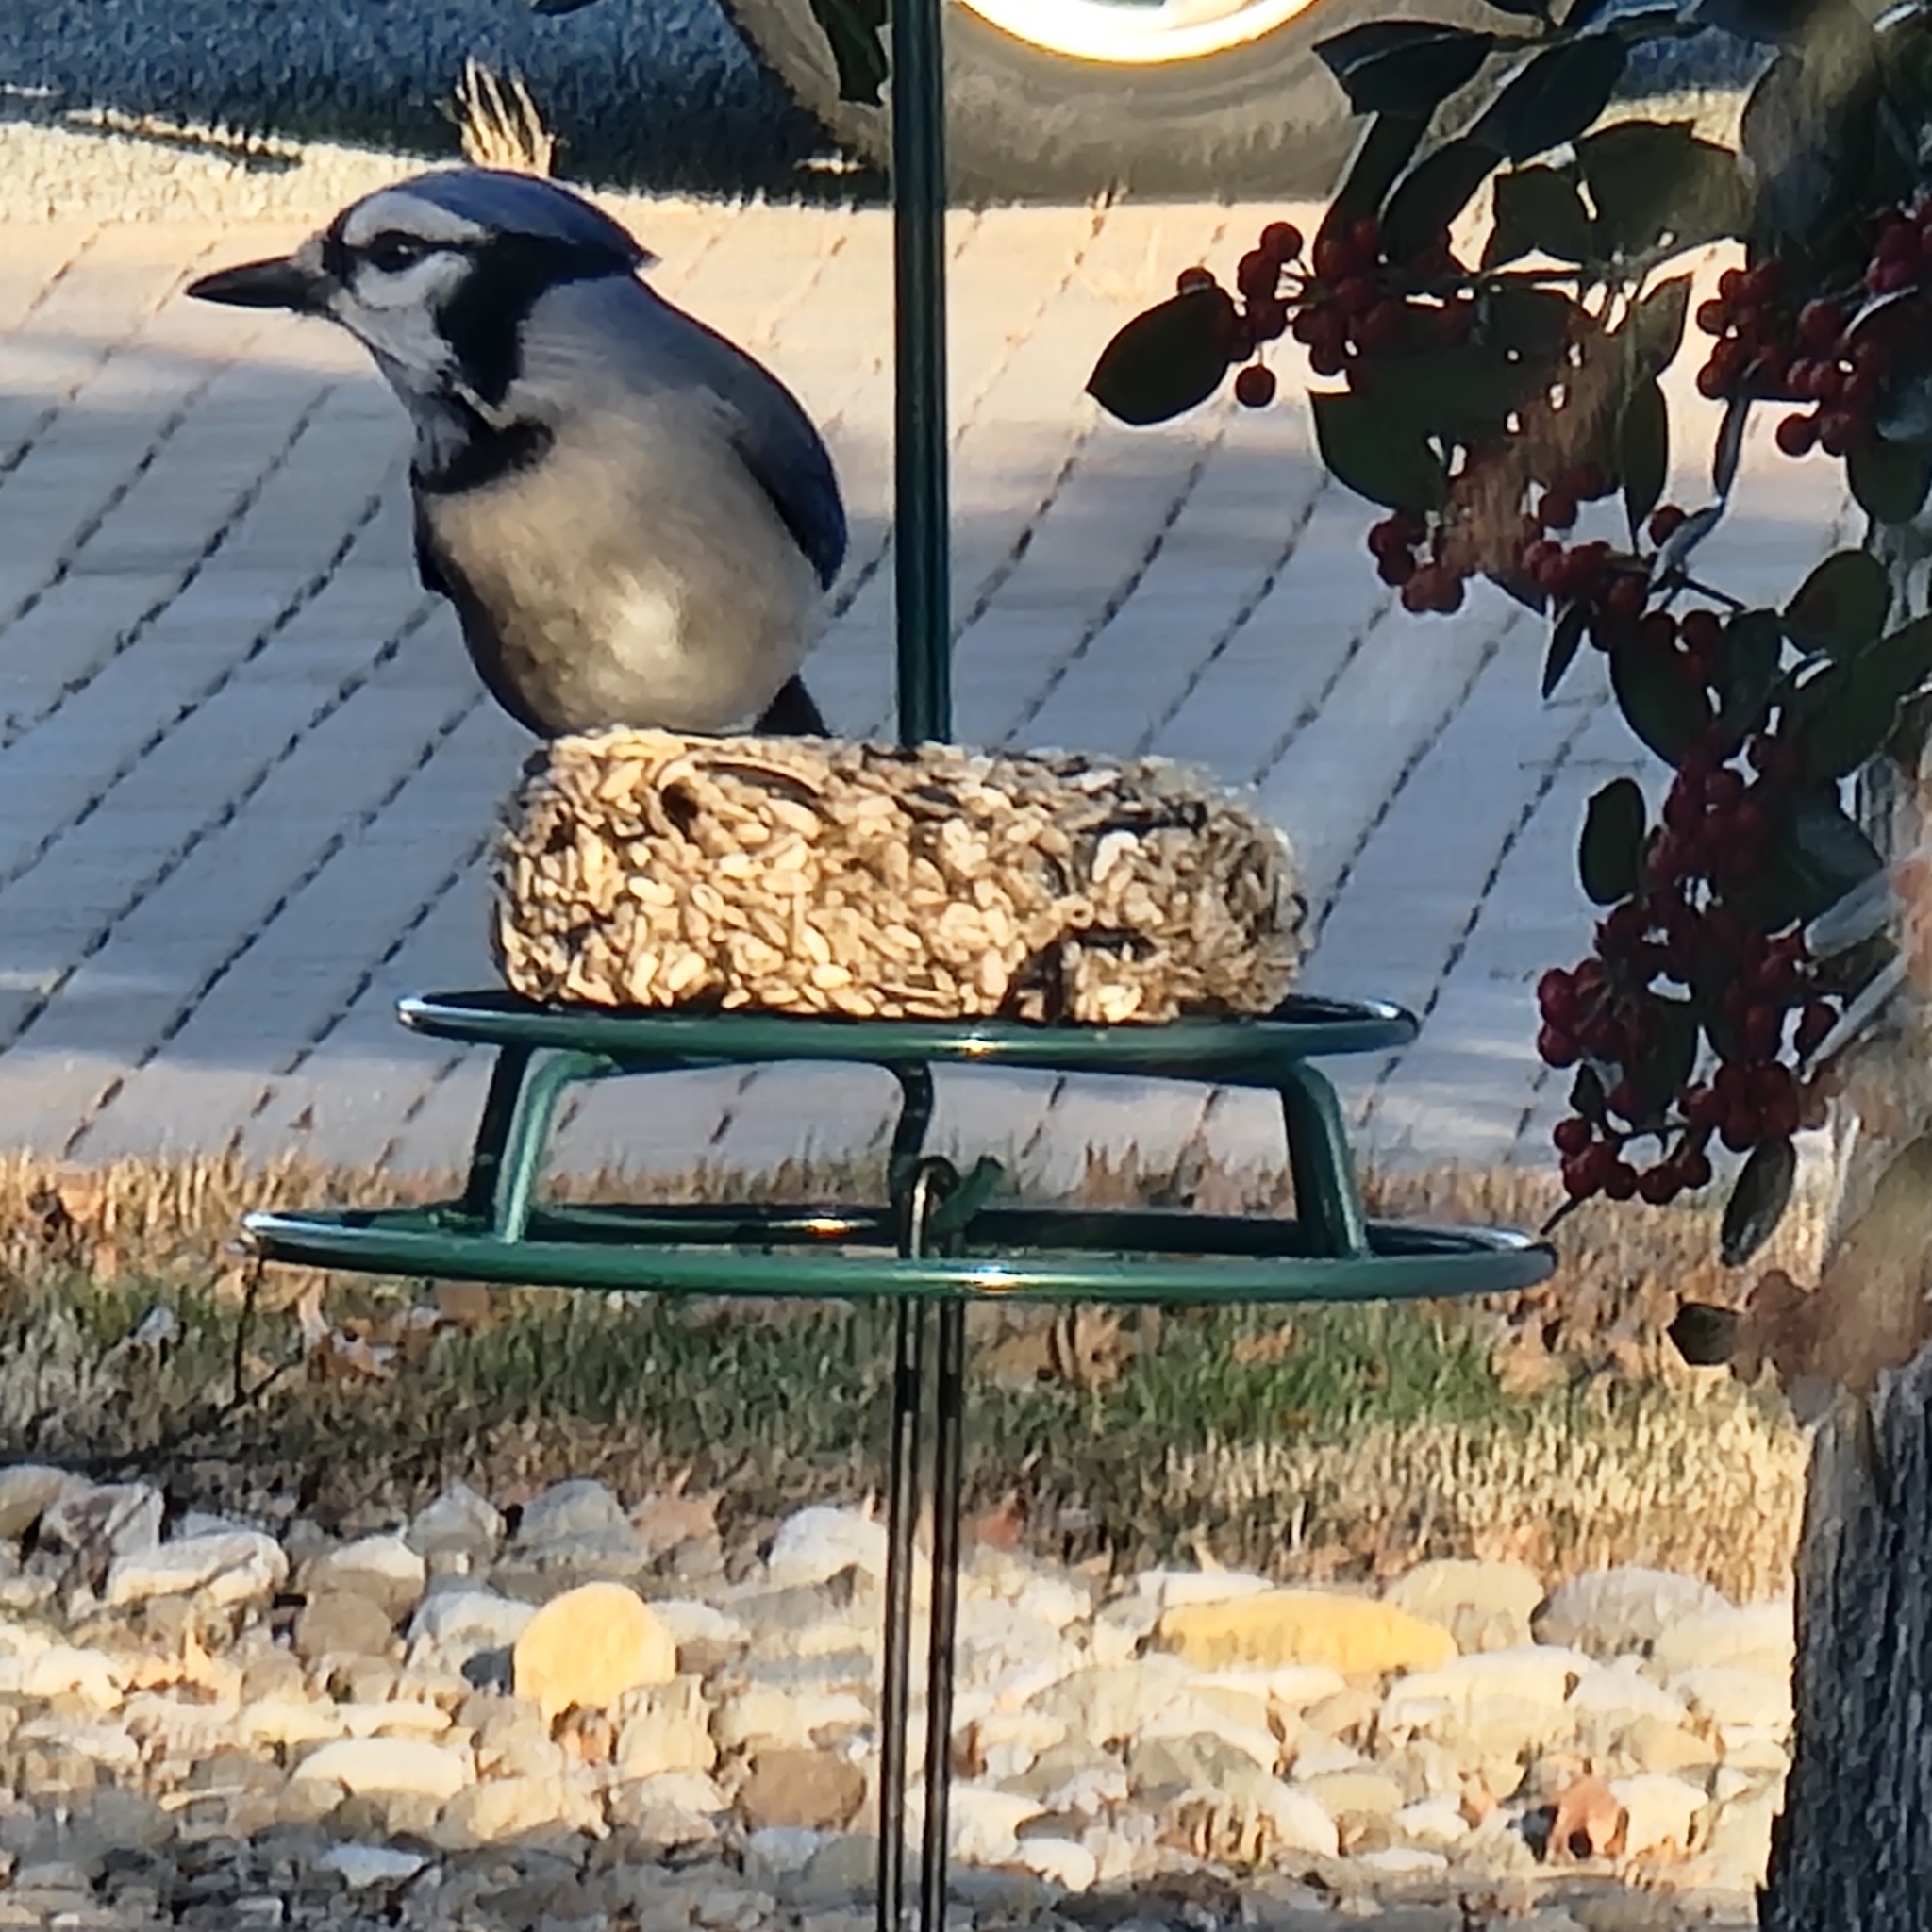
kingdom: Animalia
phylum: Chordata
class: Aves
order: Passeriformes
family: Corvidae
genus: Cyanocitta
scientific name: Cyanocitta cristata
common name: Blue jay
